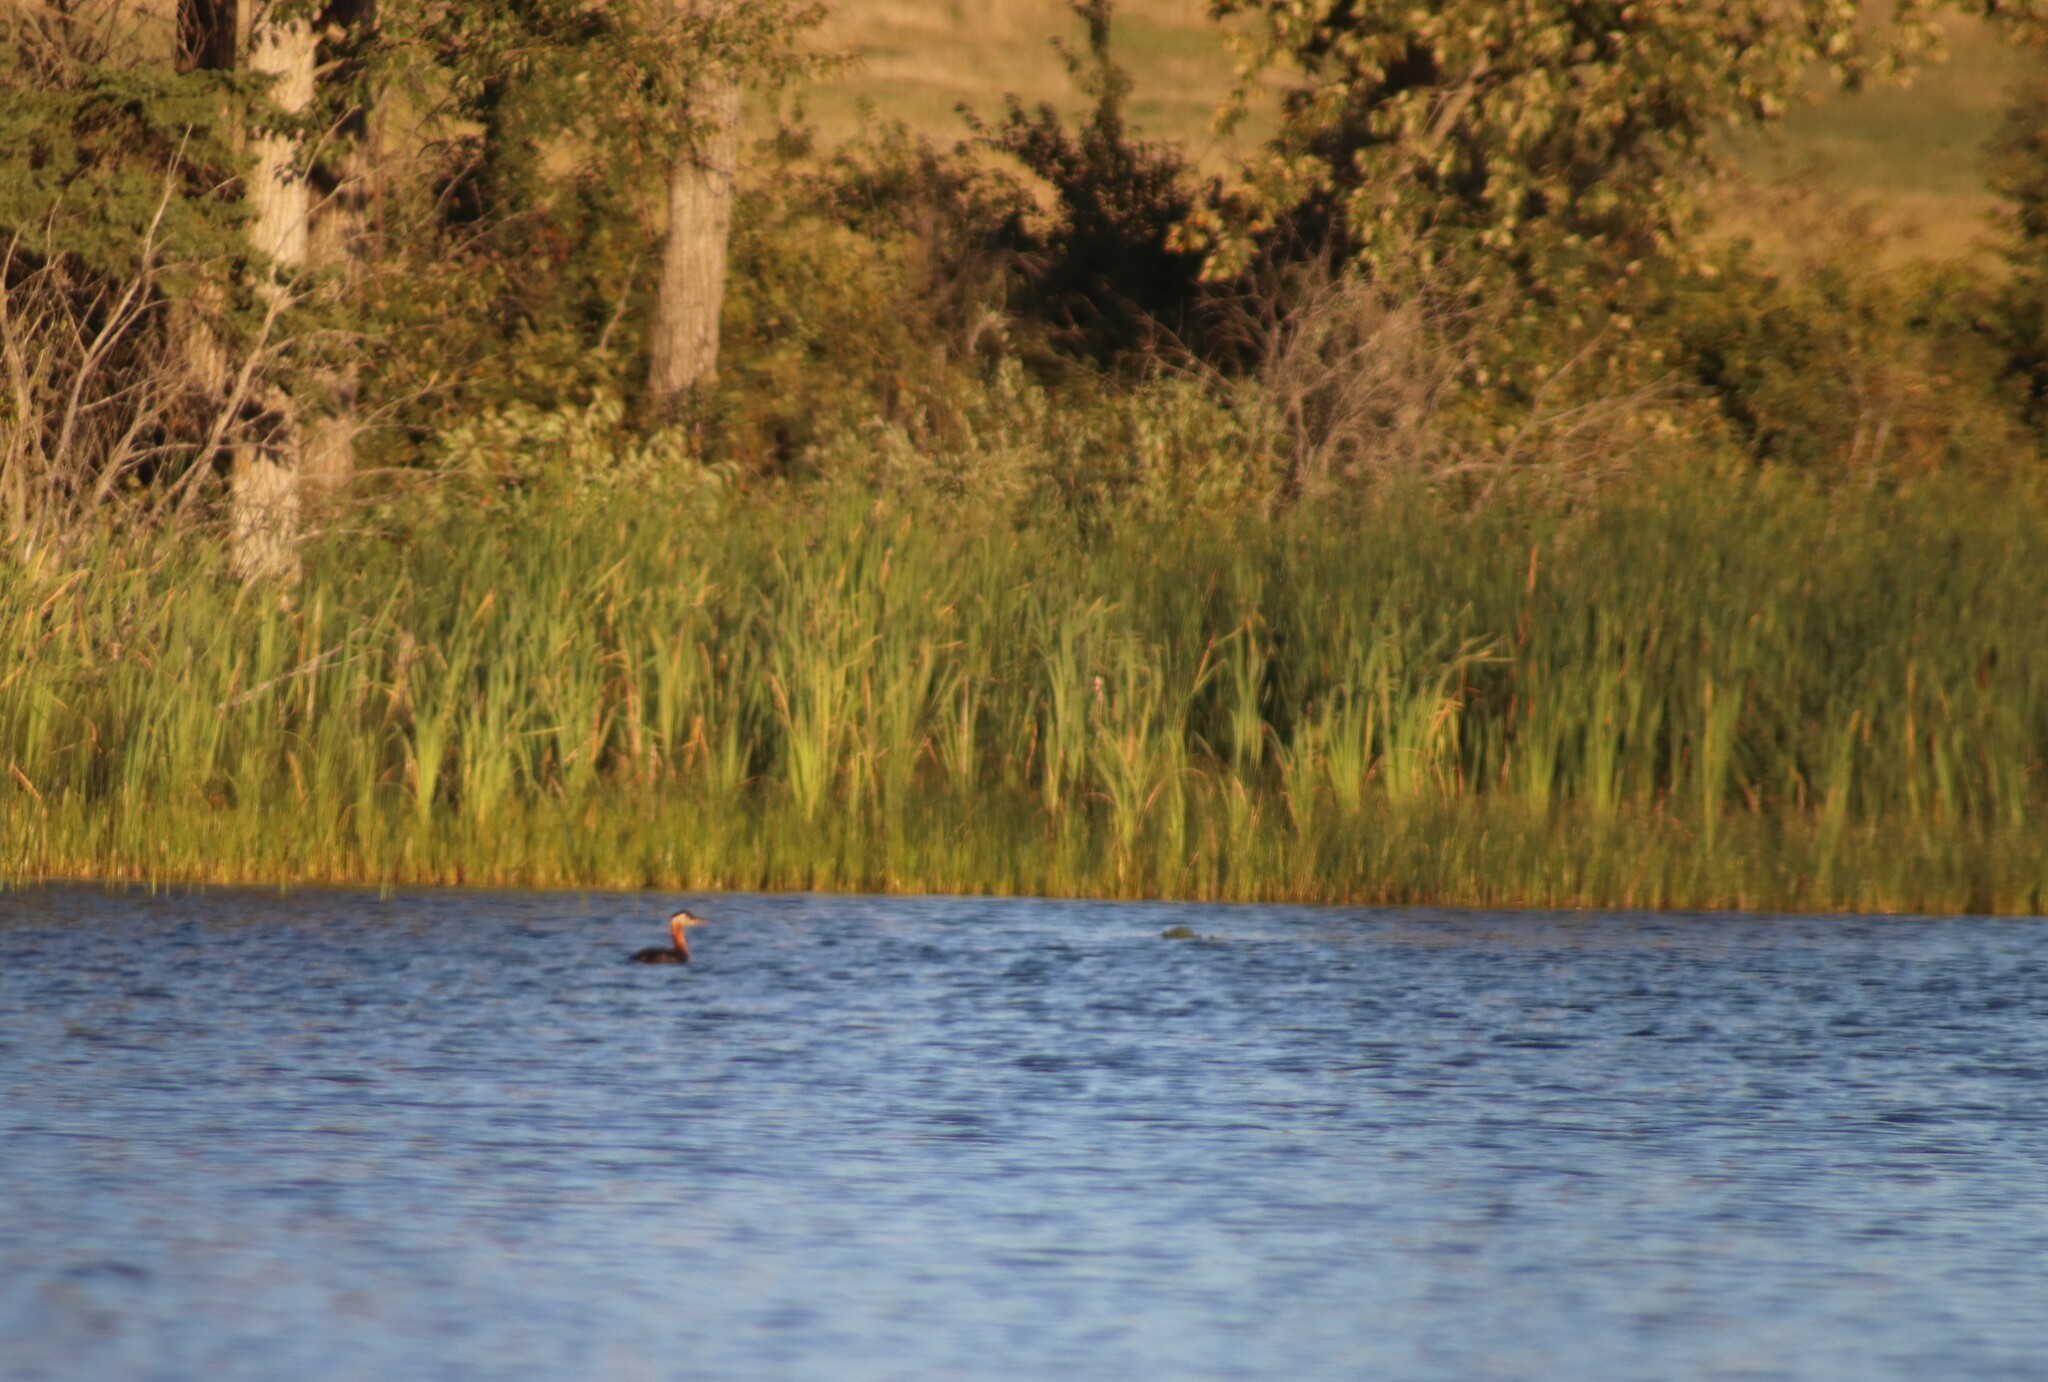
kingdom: Animalia
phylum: Chordata
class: Aves
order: Podicipediformes
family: Podicipedidae
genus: Podiceps
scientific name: Podiceps grisegena
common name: Red-necked grebe
